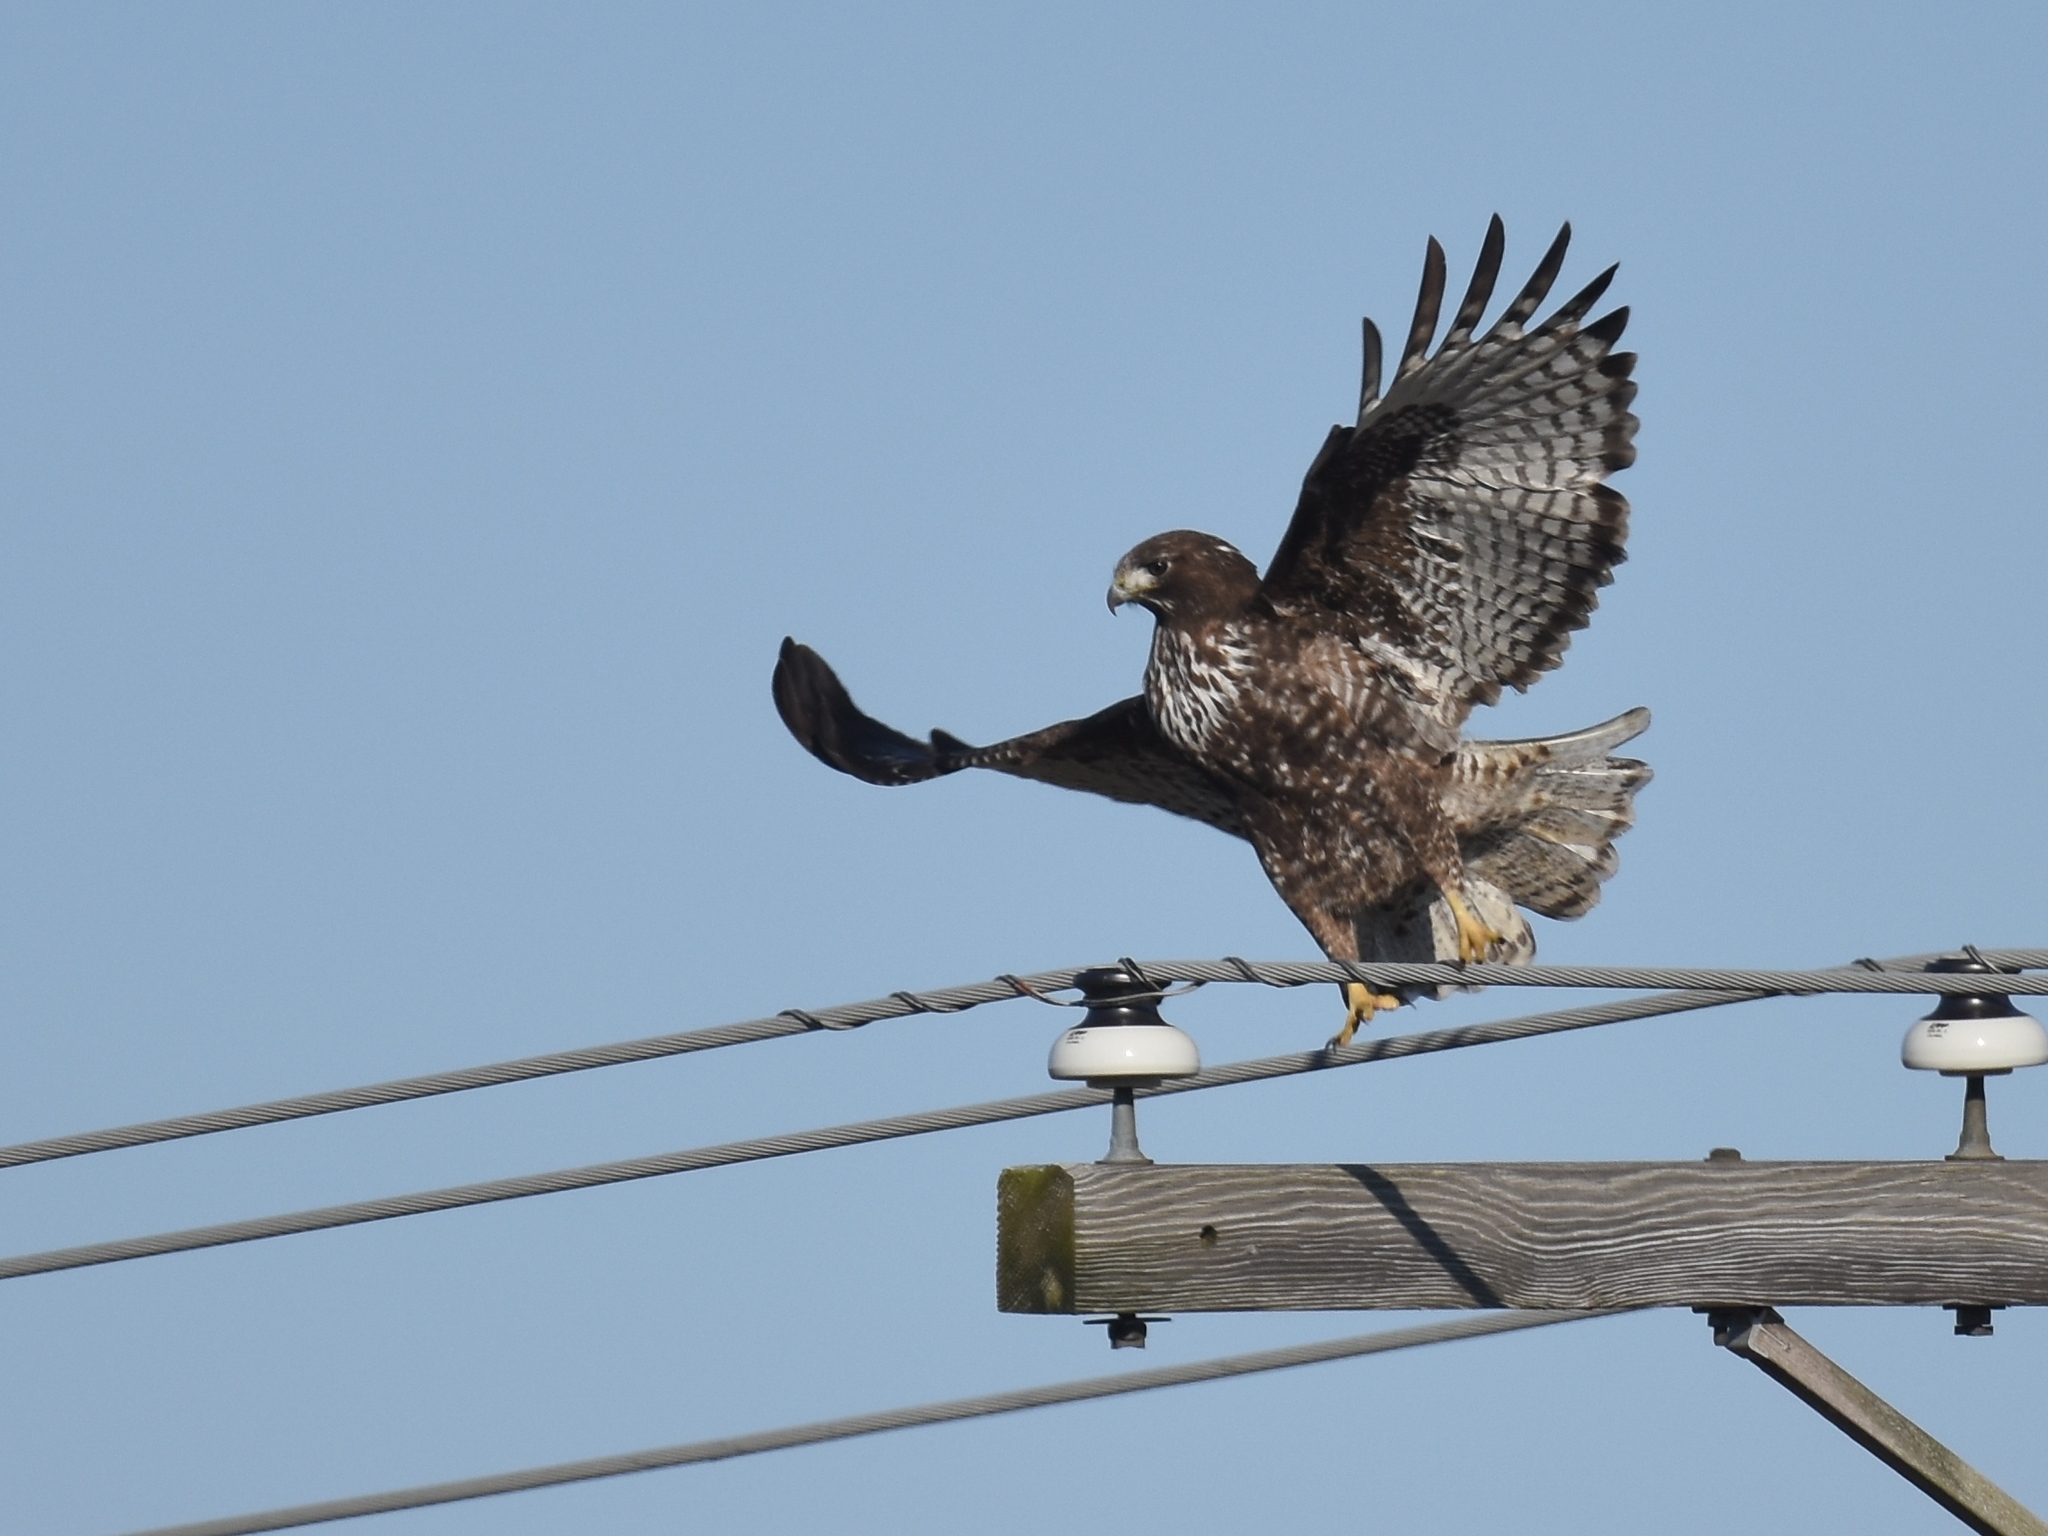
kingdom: Animalia
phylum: Chordata
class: Aves
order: Accipitriformes
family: Accipitridae
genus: Buteo
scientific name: Buteo jamaicensis
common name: Red-tailed hawk
